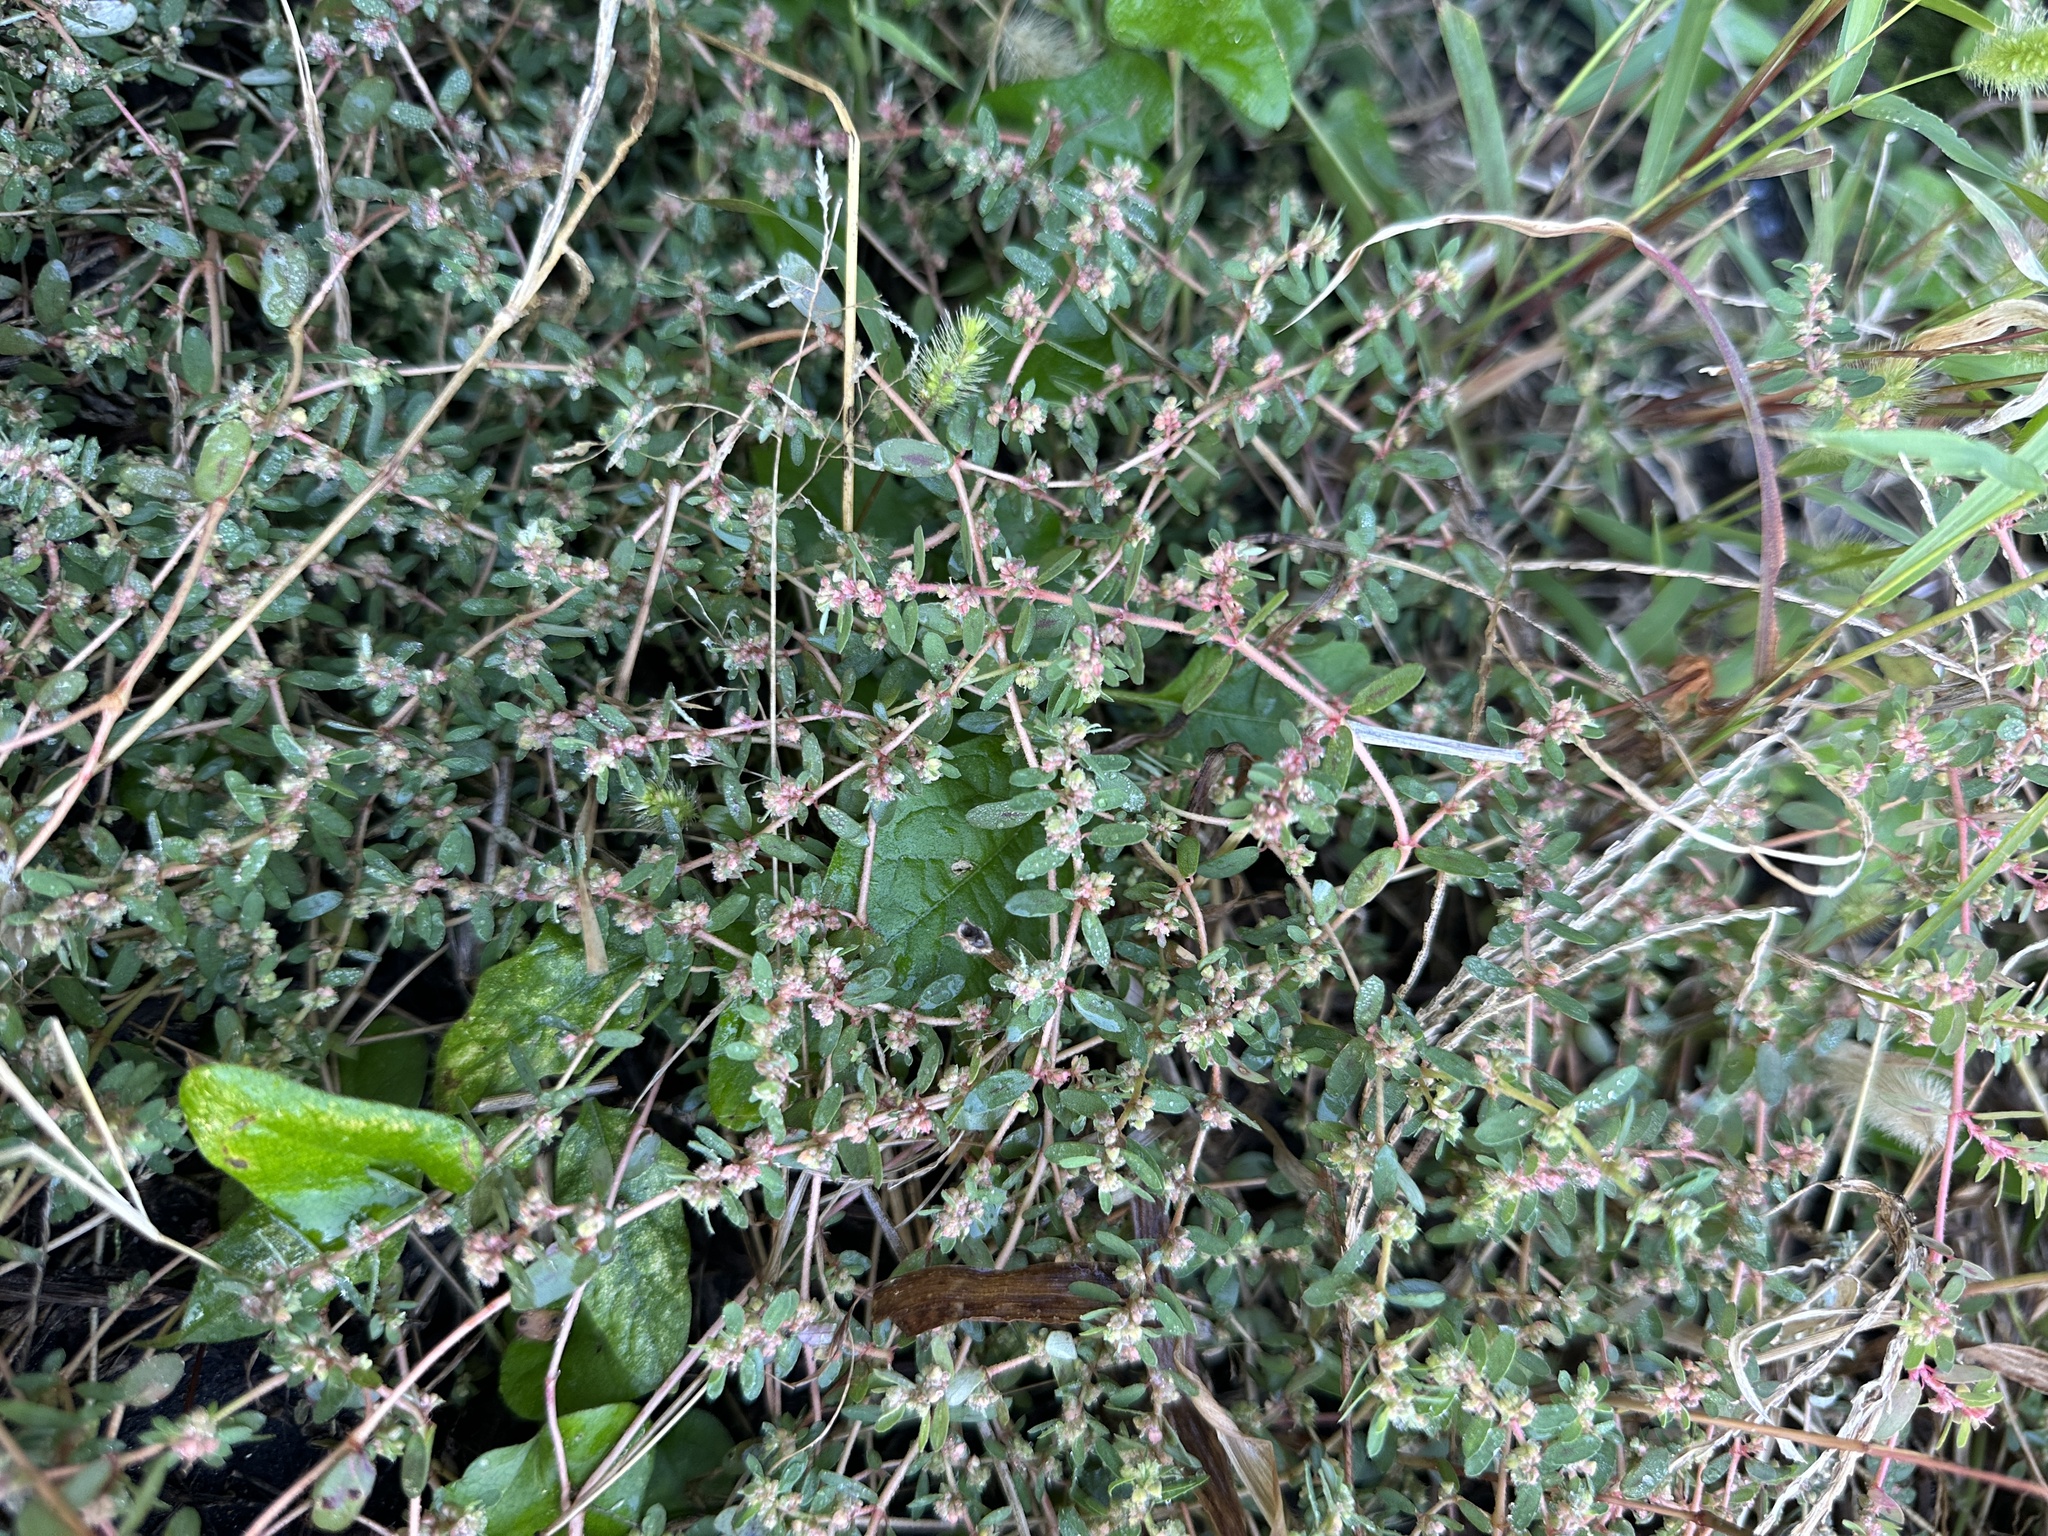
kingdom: Plantae
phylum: Tracheophyta
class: Magnoliopsida
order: Malpighiales
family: Euphorbiaceae
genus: Euphorbia
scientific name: Euphorbia maculata
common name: Spotted spurge
